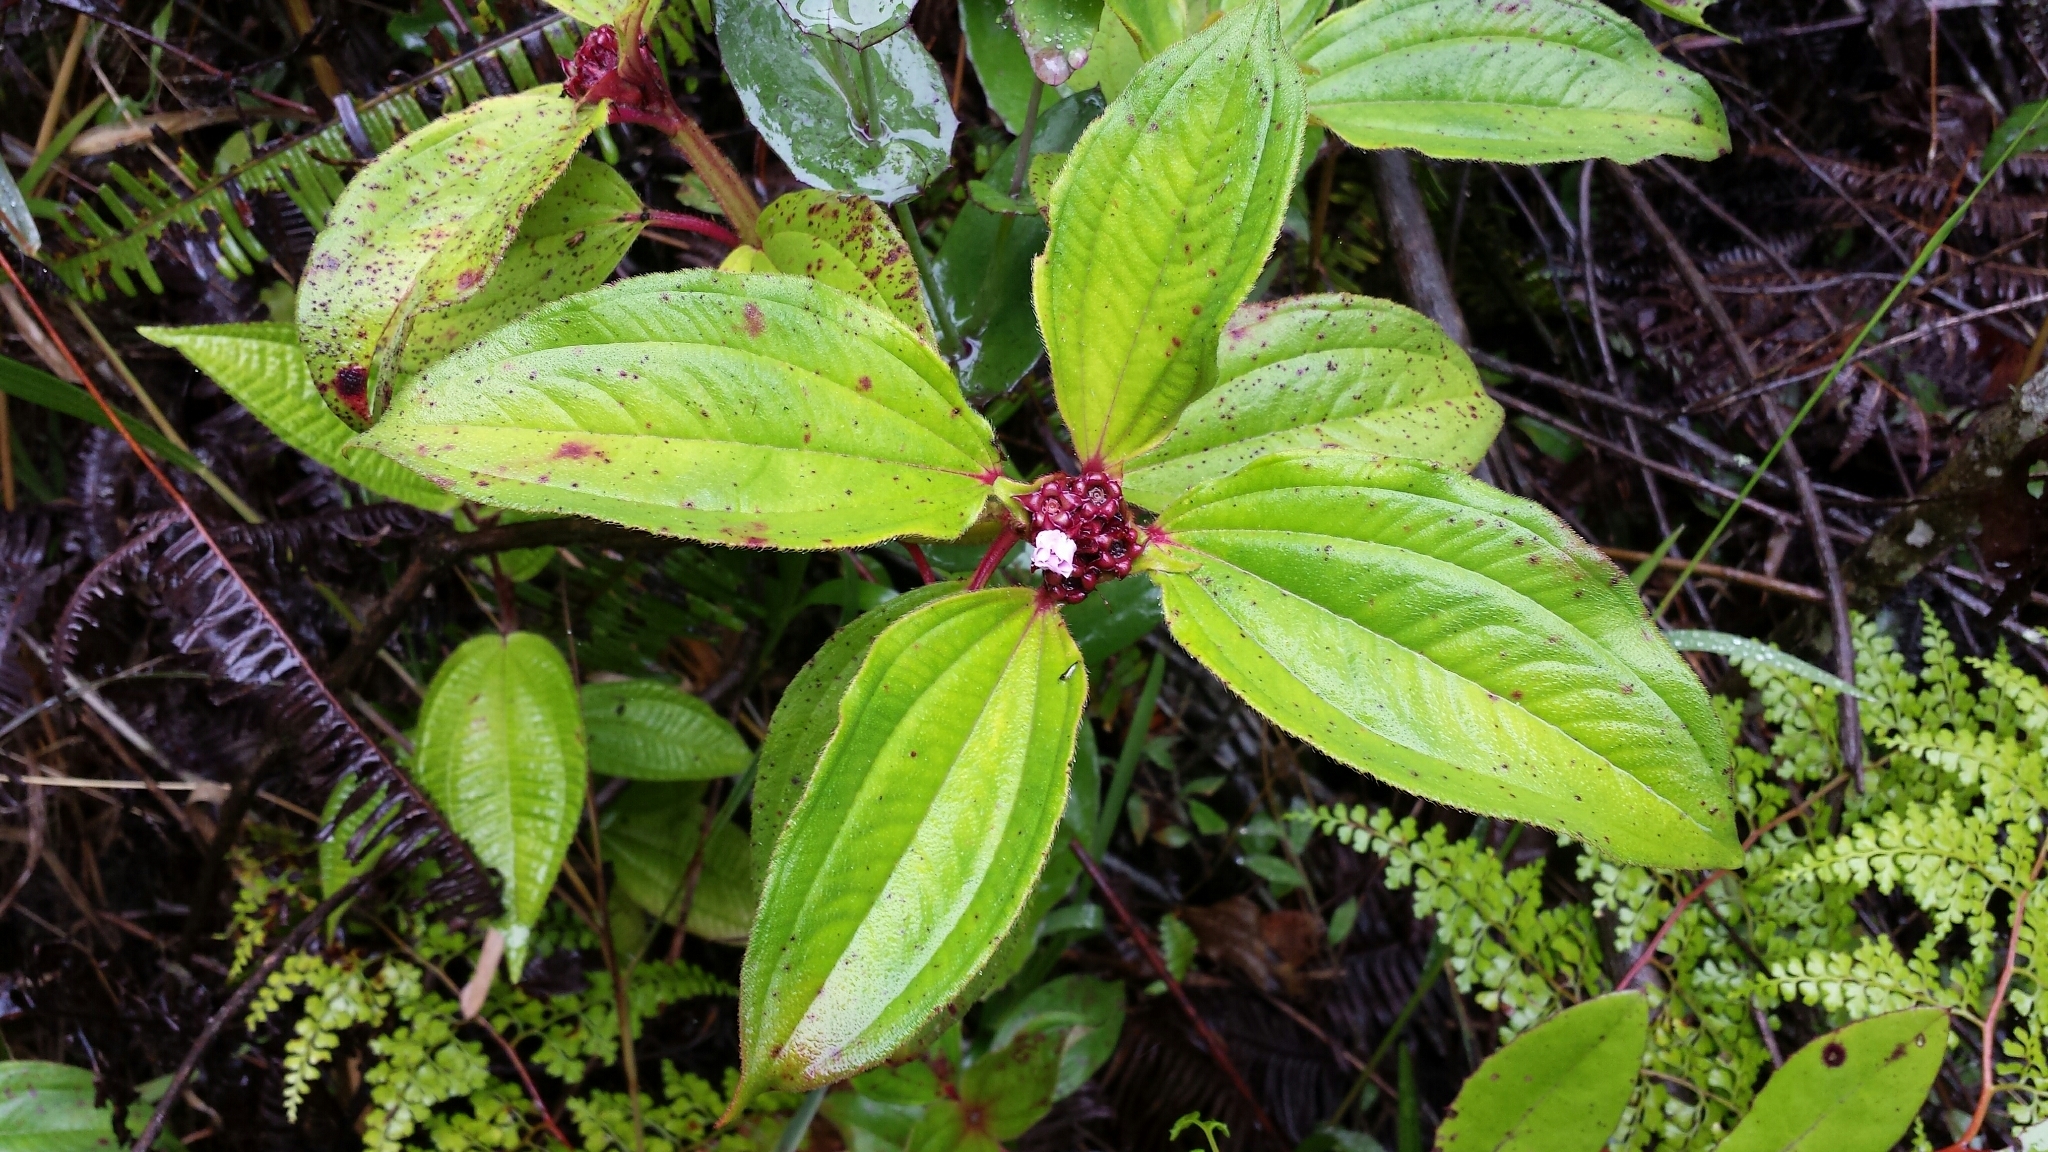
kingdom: Plantae
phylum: Tracheophyta
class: Magnoliopsida
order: Myrtales
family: Melastomataceae
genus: Tristemma
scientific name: Tristemma mauritianum
